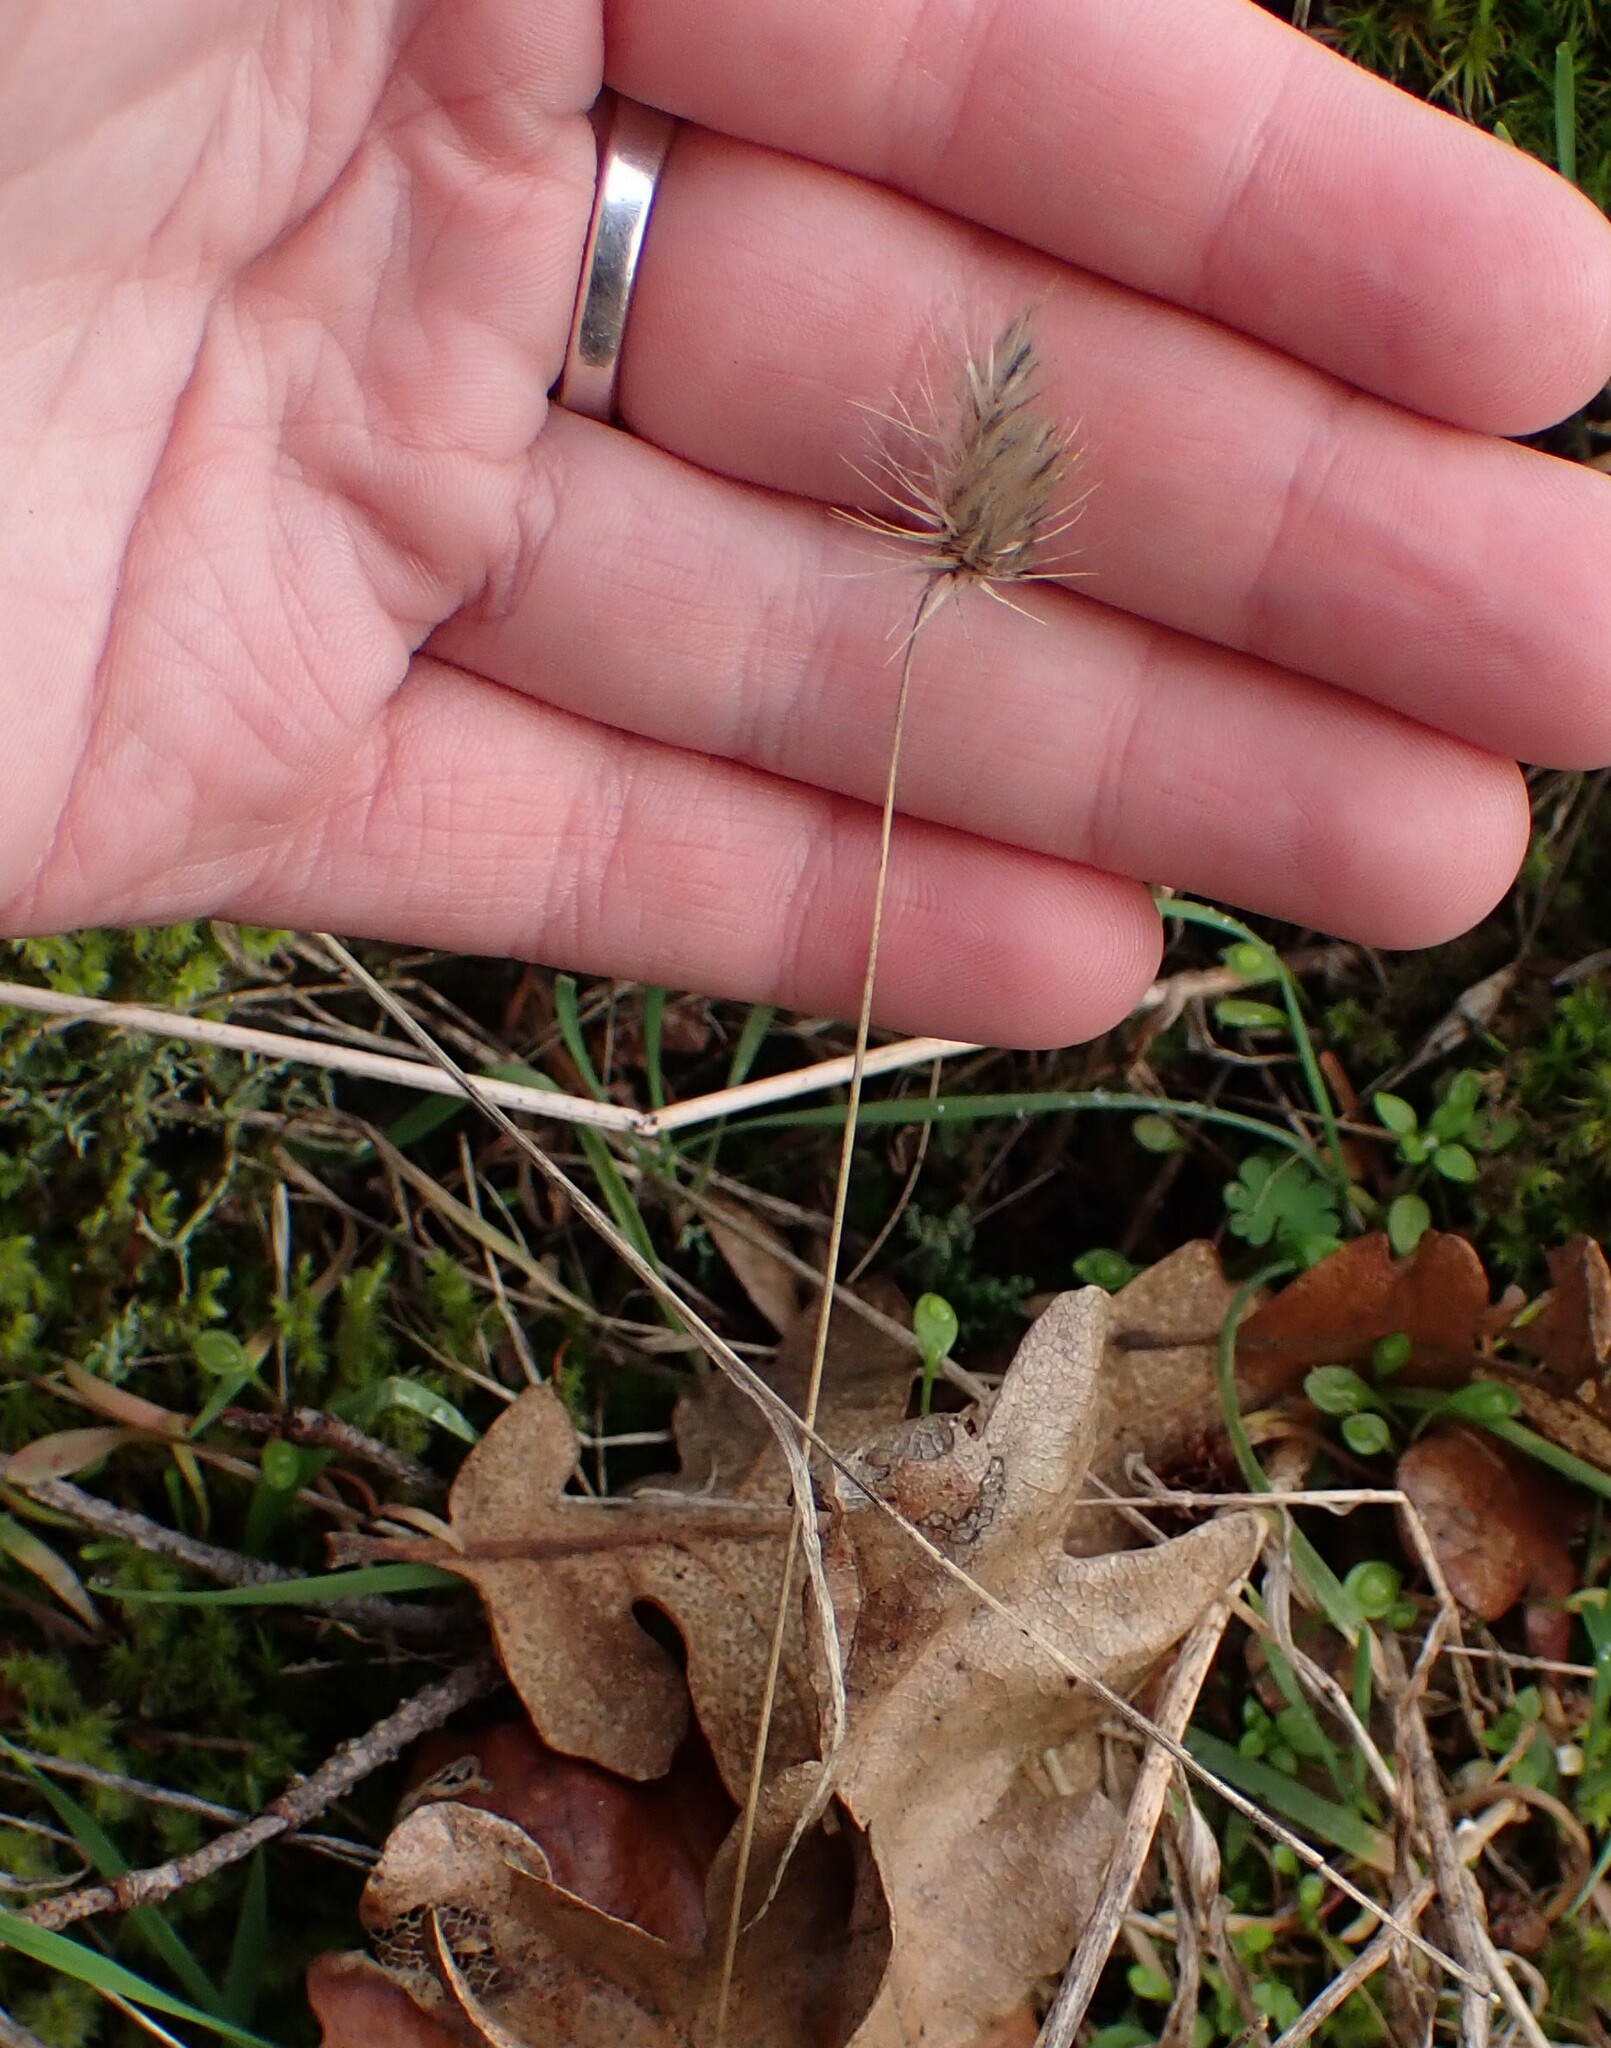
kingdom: Plantae
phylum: Tracheophyta
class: Liliopsida
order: Poales
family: Poaceae
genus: Cynosurus
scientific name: Cynosurus echinatus
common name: Rough dog's-tail
